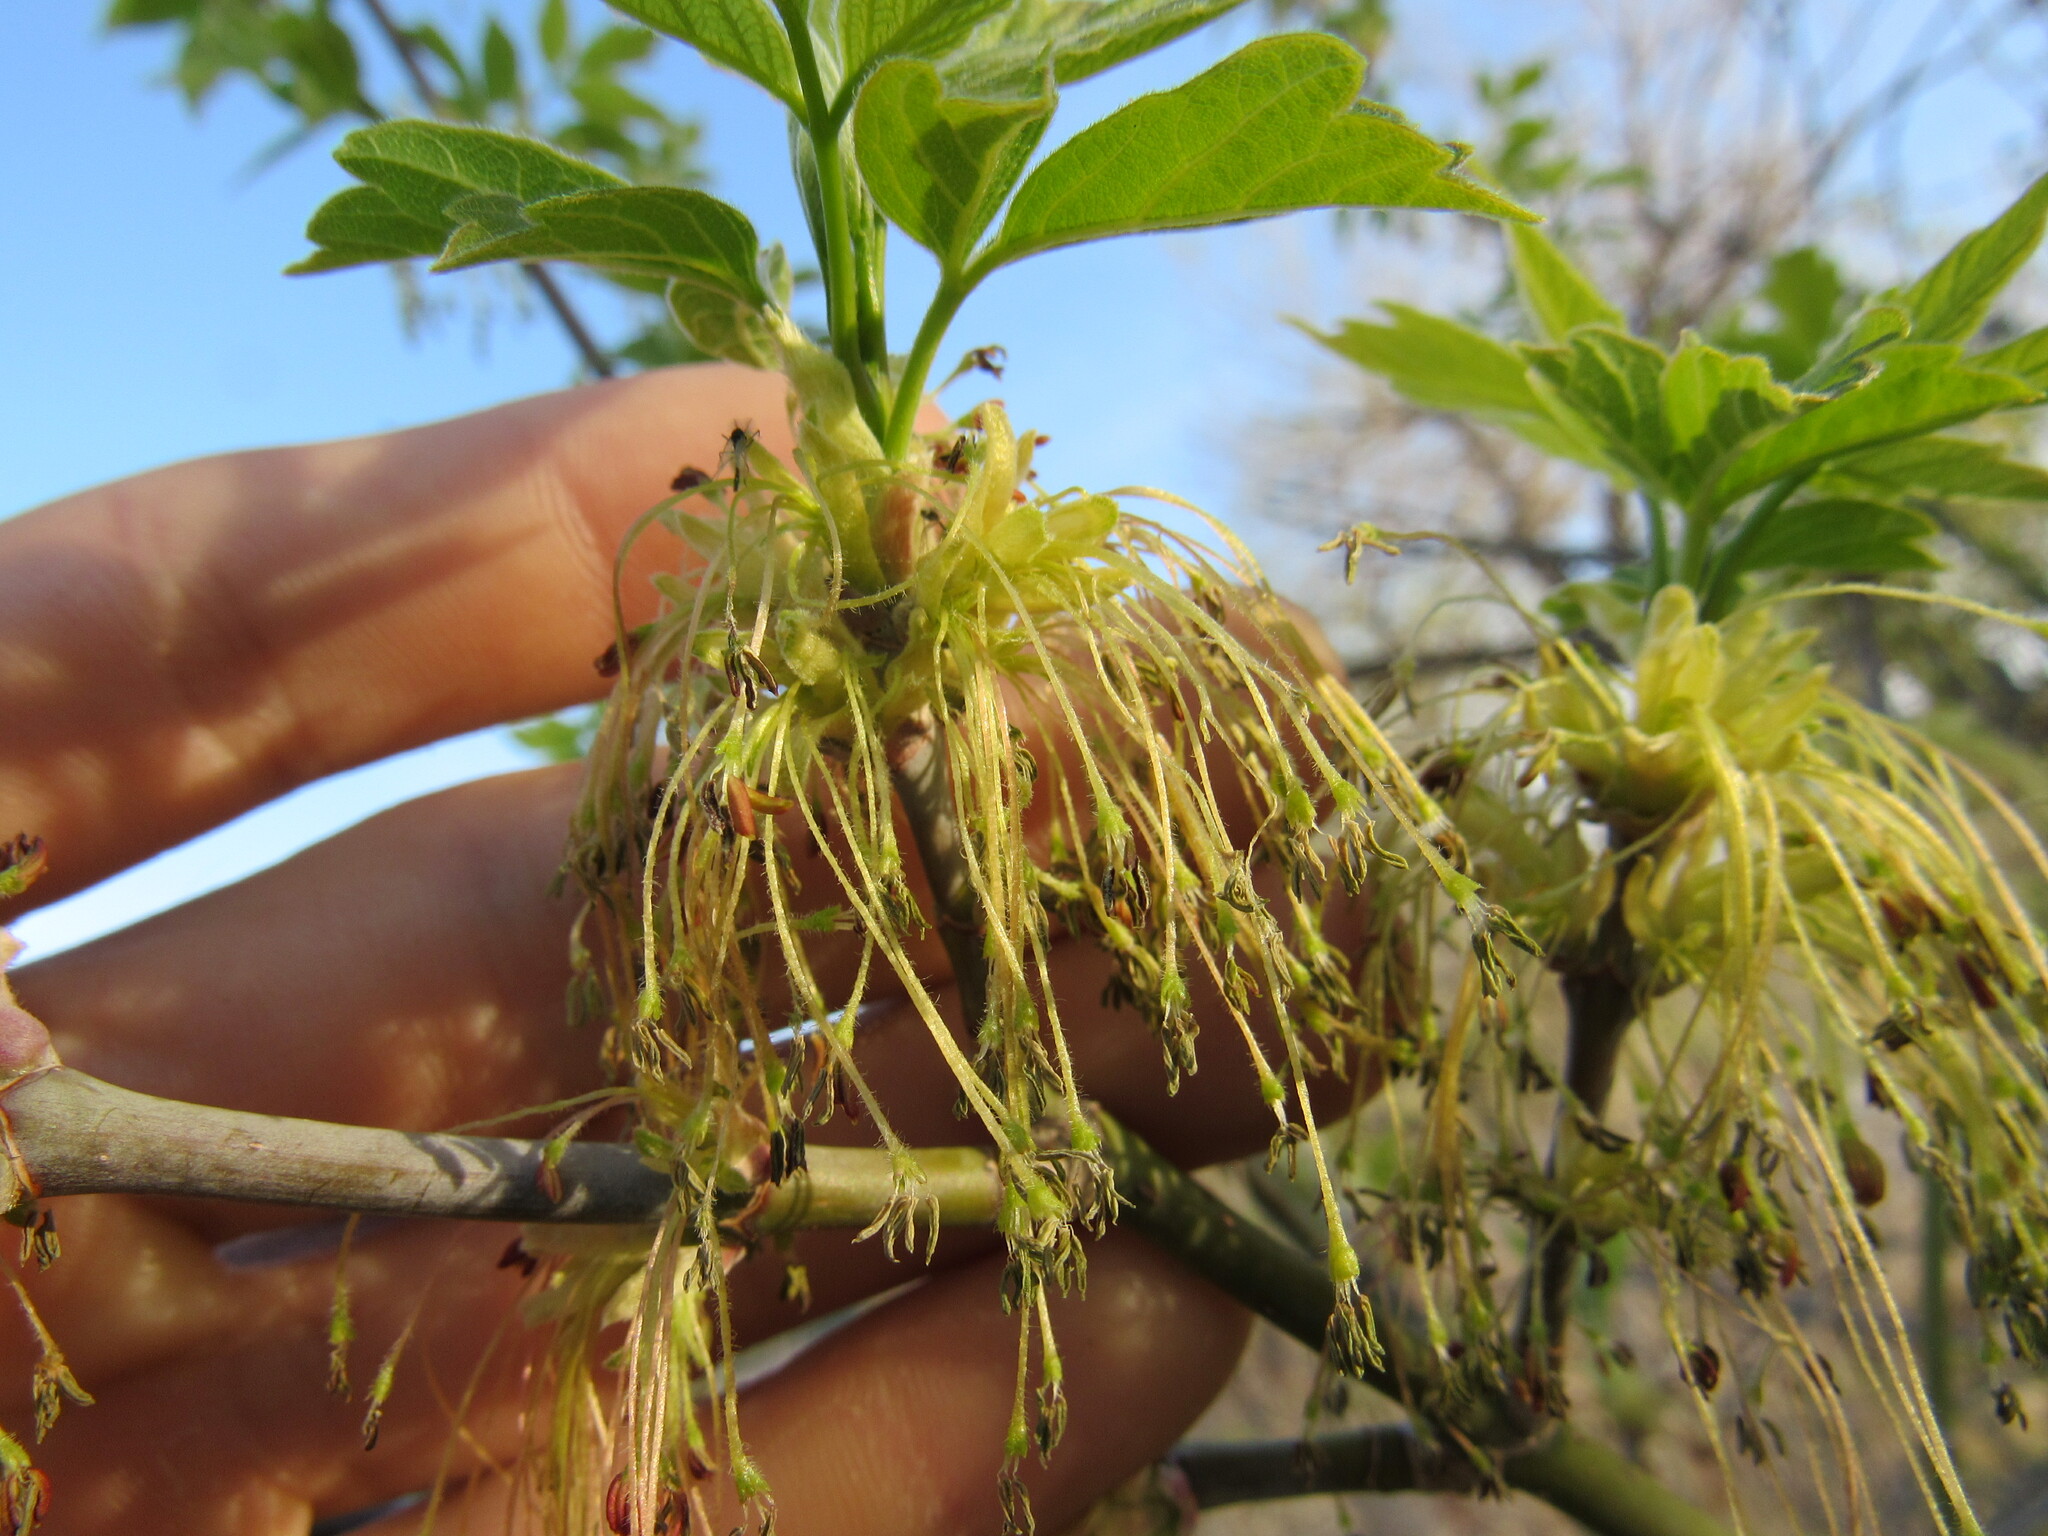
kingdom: Plantae
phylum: Tracheophyta
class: Magnoliopsida
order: Sapindales
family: Sapindaceae
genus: Acer
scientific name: Acer negundo
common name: Ashleaf maple
